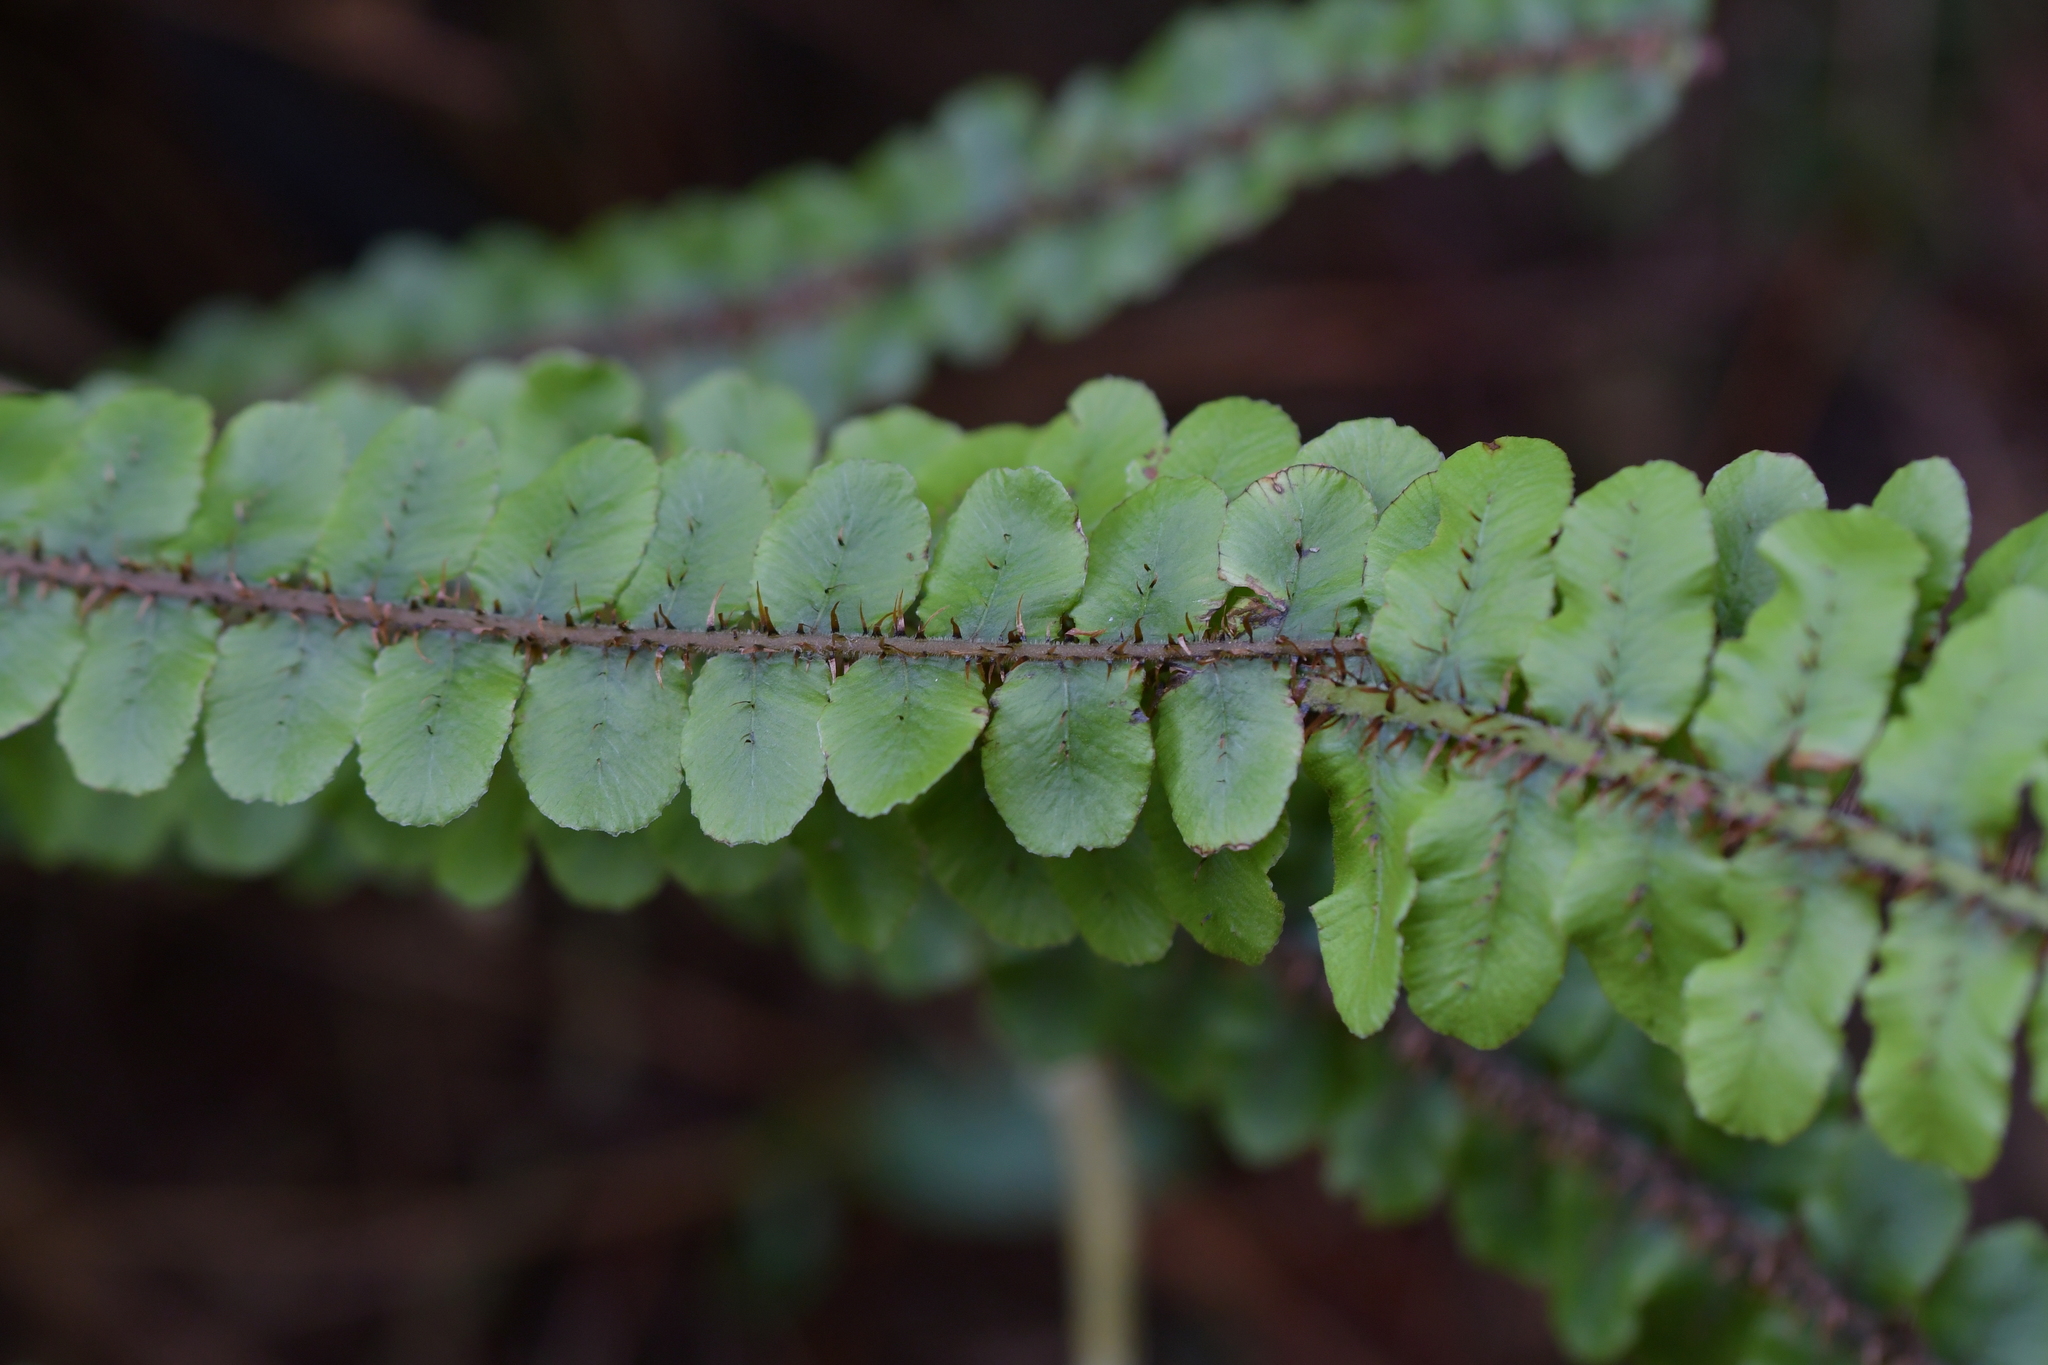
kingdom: Plantae
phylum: Tracheophyta
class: Polypodiopsida
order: Polypodiales
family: Blechnaceae
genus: Cranfillia
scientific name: Cranfillia fluviatilis
